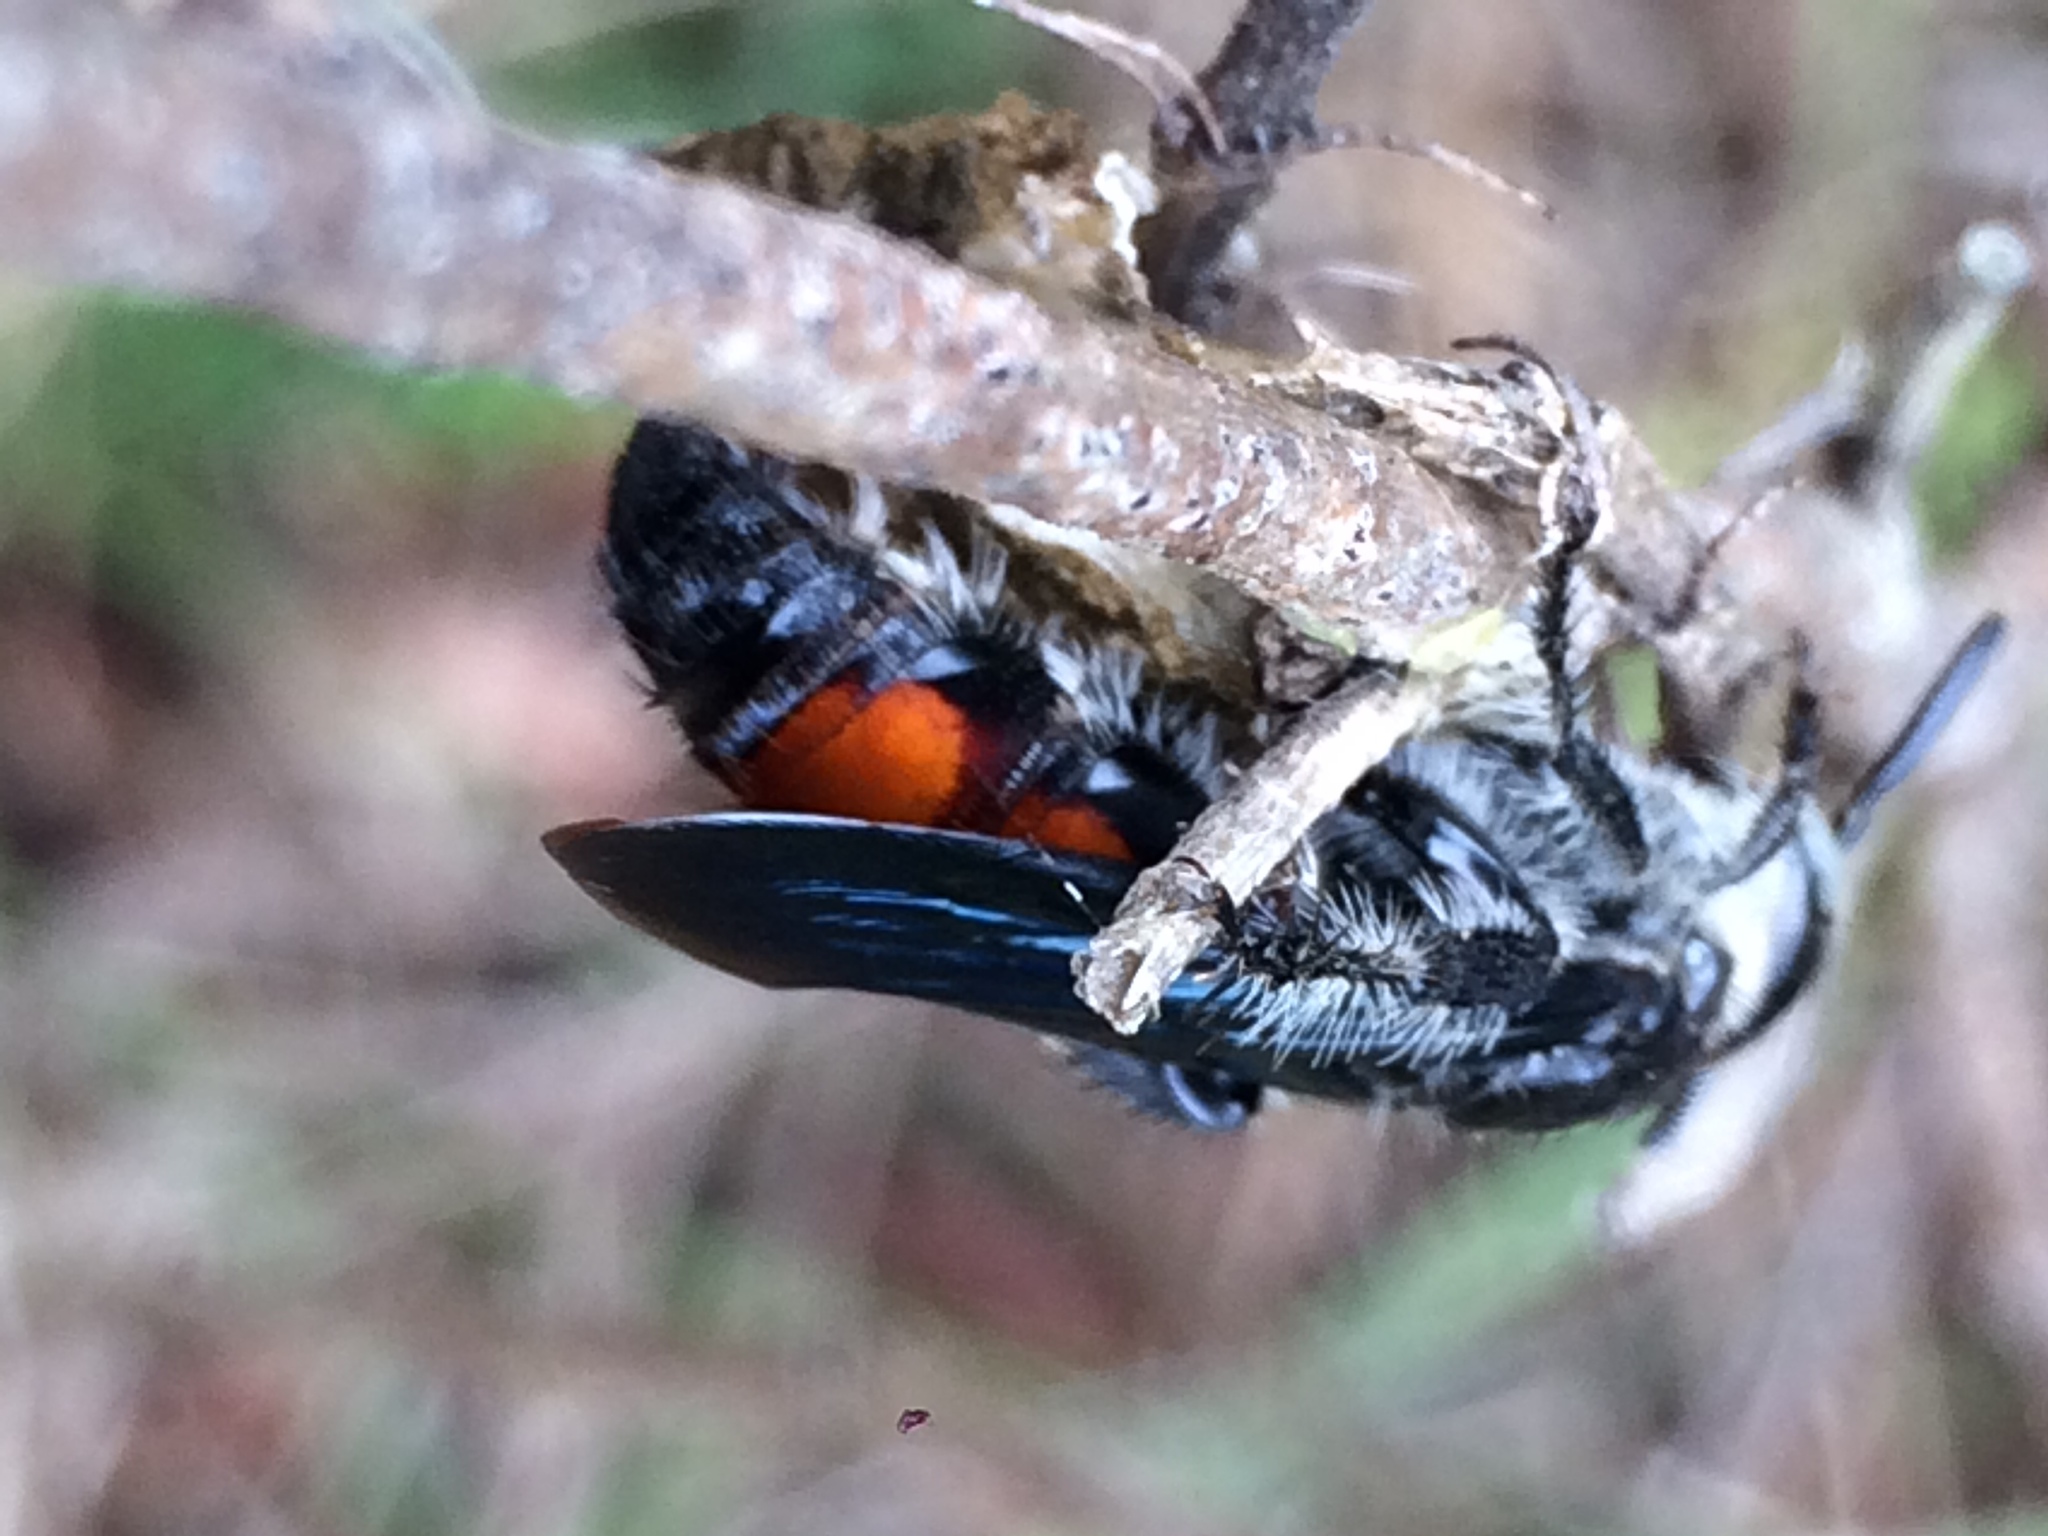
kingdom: Animalia
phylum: Arthropoda
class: Insecta
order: Hymenoptera
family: Scoliidae
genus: Dielis
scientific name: Dielis dorsata
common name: Scoliid wasp
